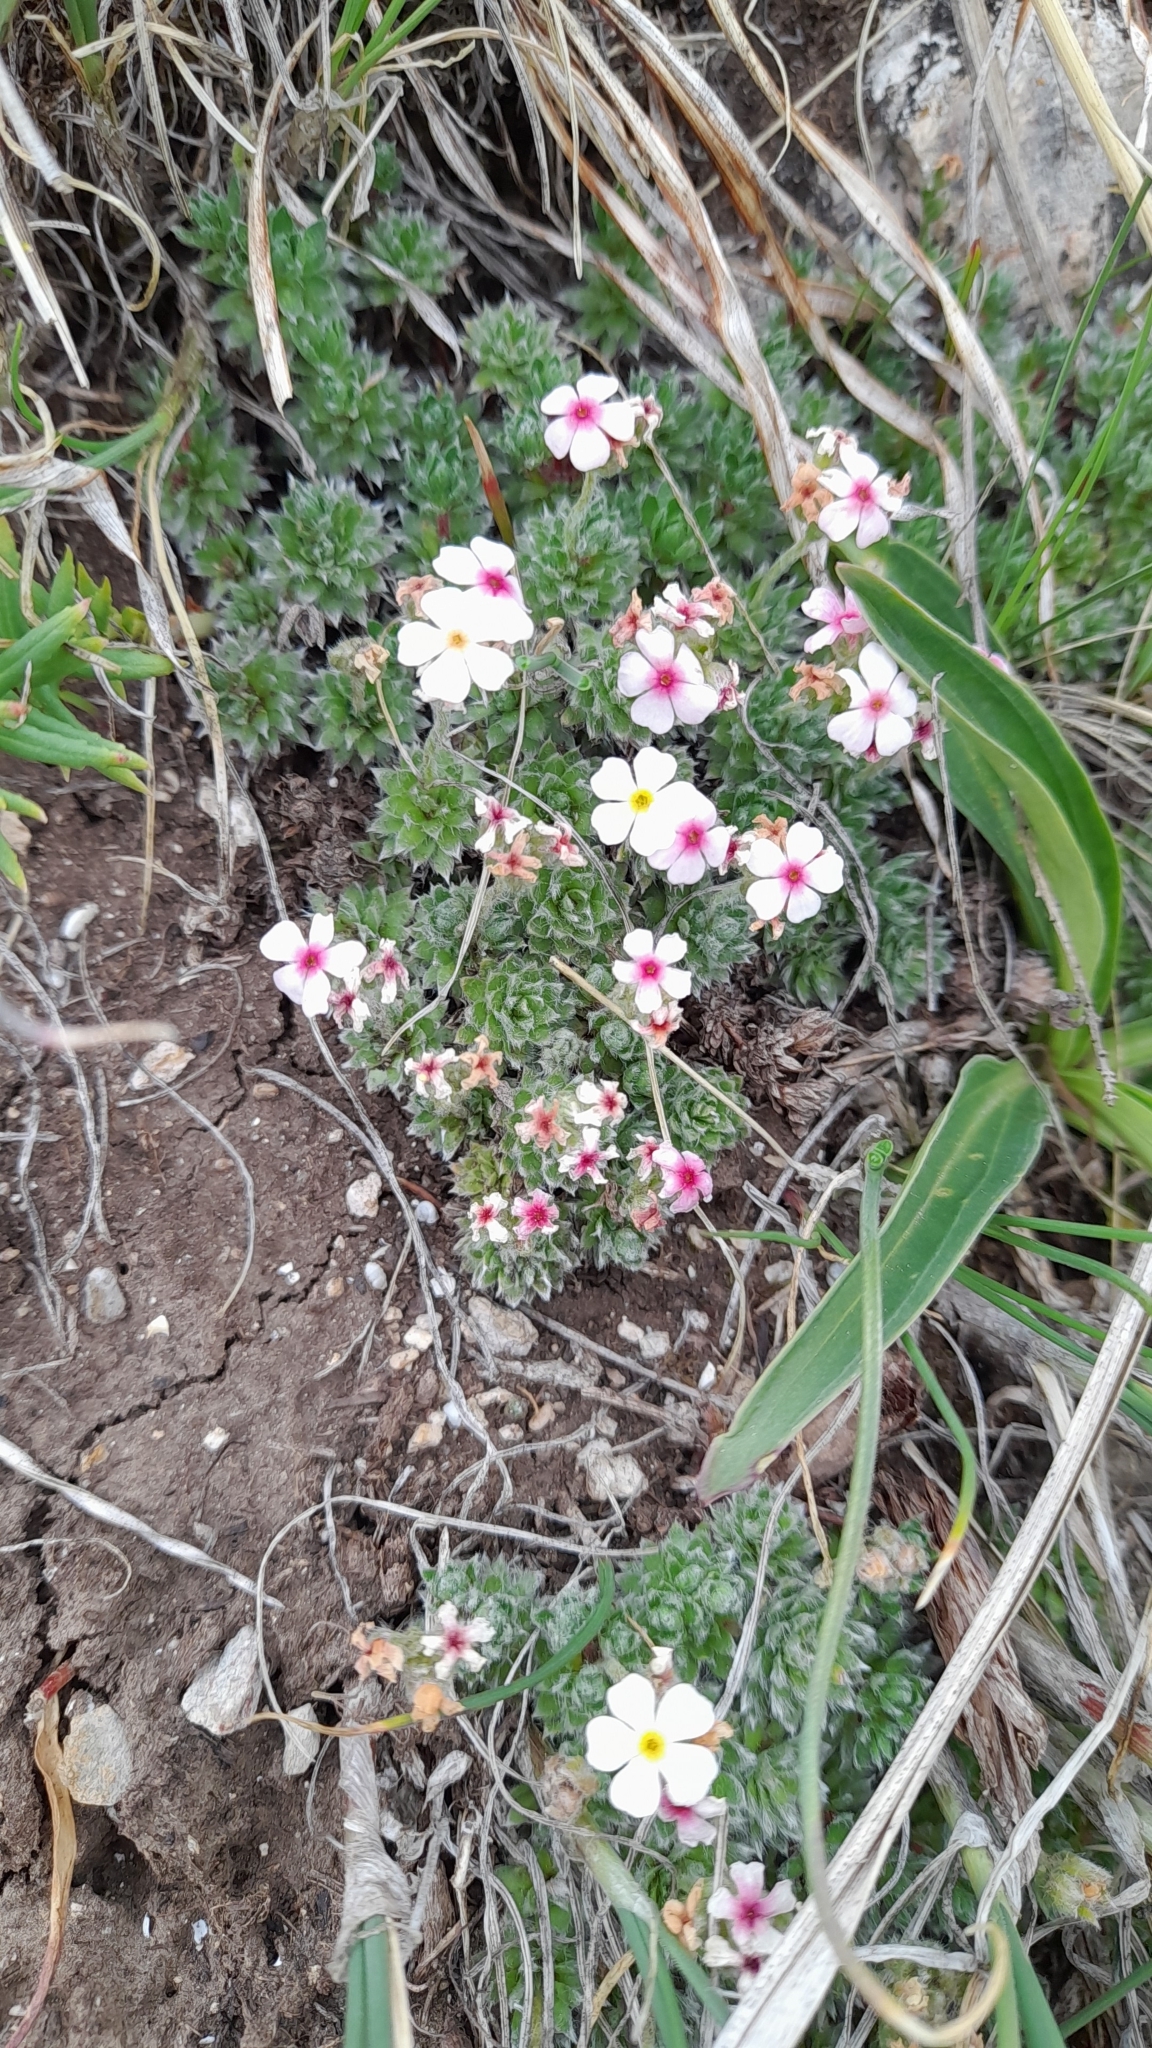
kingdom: Plantae
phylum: Tracheophyta
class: Magnoliopsida
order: Ericales
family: Primulaceae
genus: Androsace
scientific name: Androsace sericea
